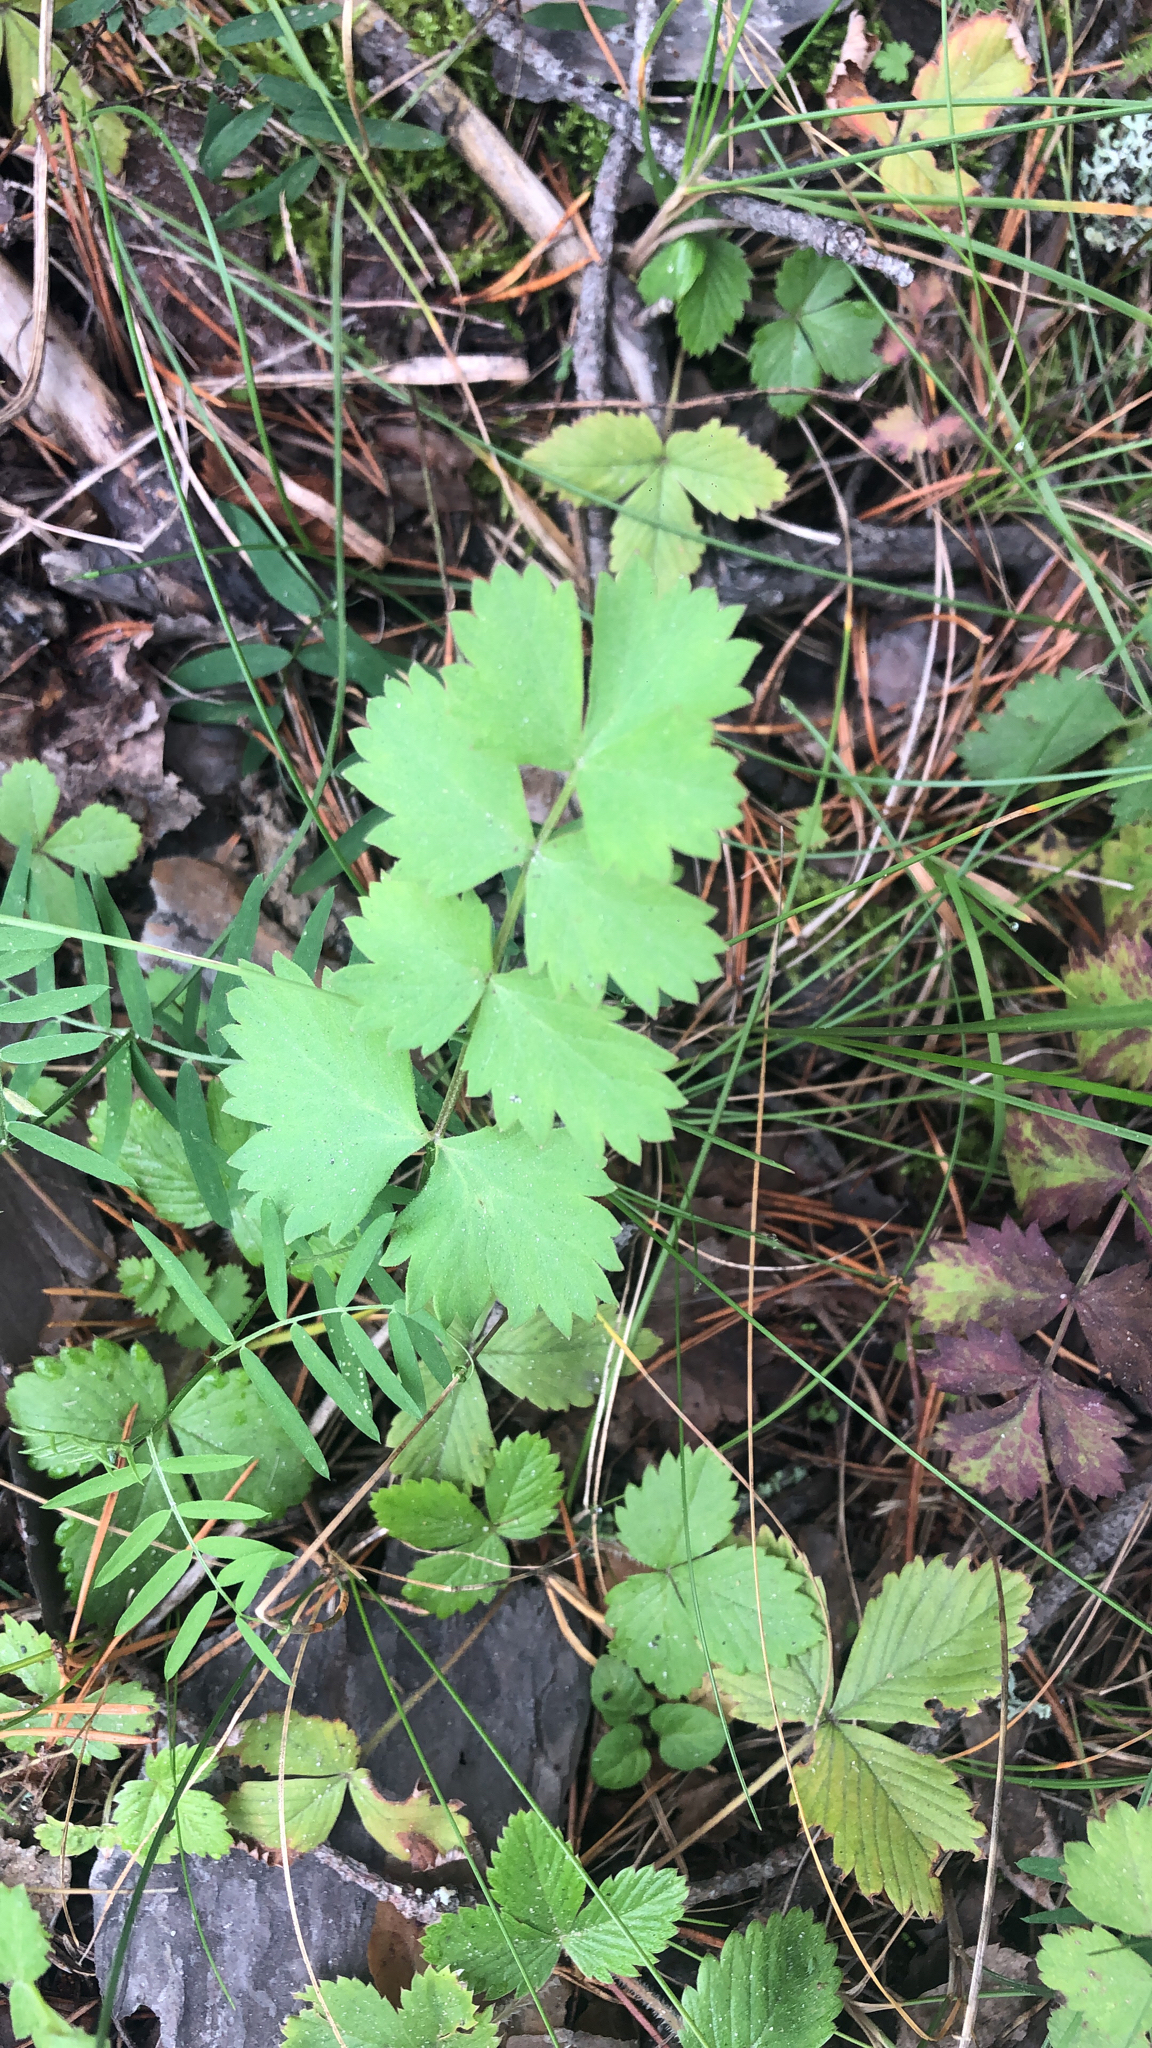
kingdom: Plantae
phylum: Tracheophyta
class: Magnoliopsida
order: Apiales
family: Apiaceae
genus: Pimpinella
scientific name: Pimpinella saxifraga
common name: Burnet-saxifrage
